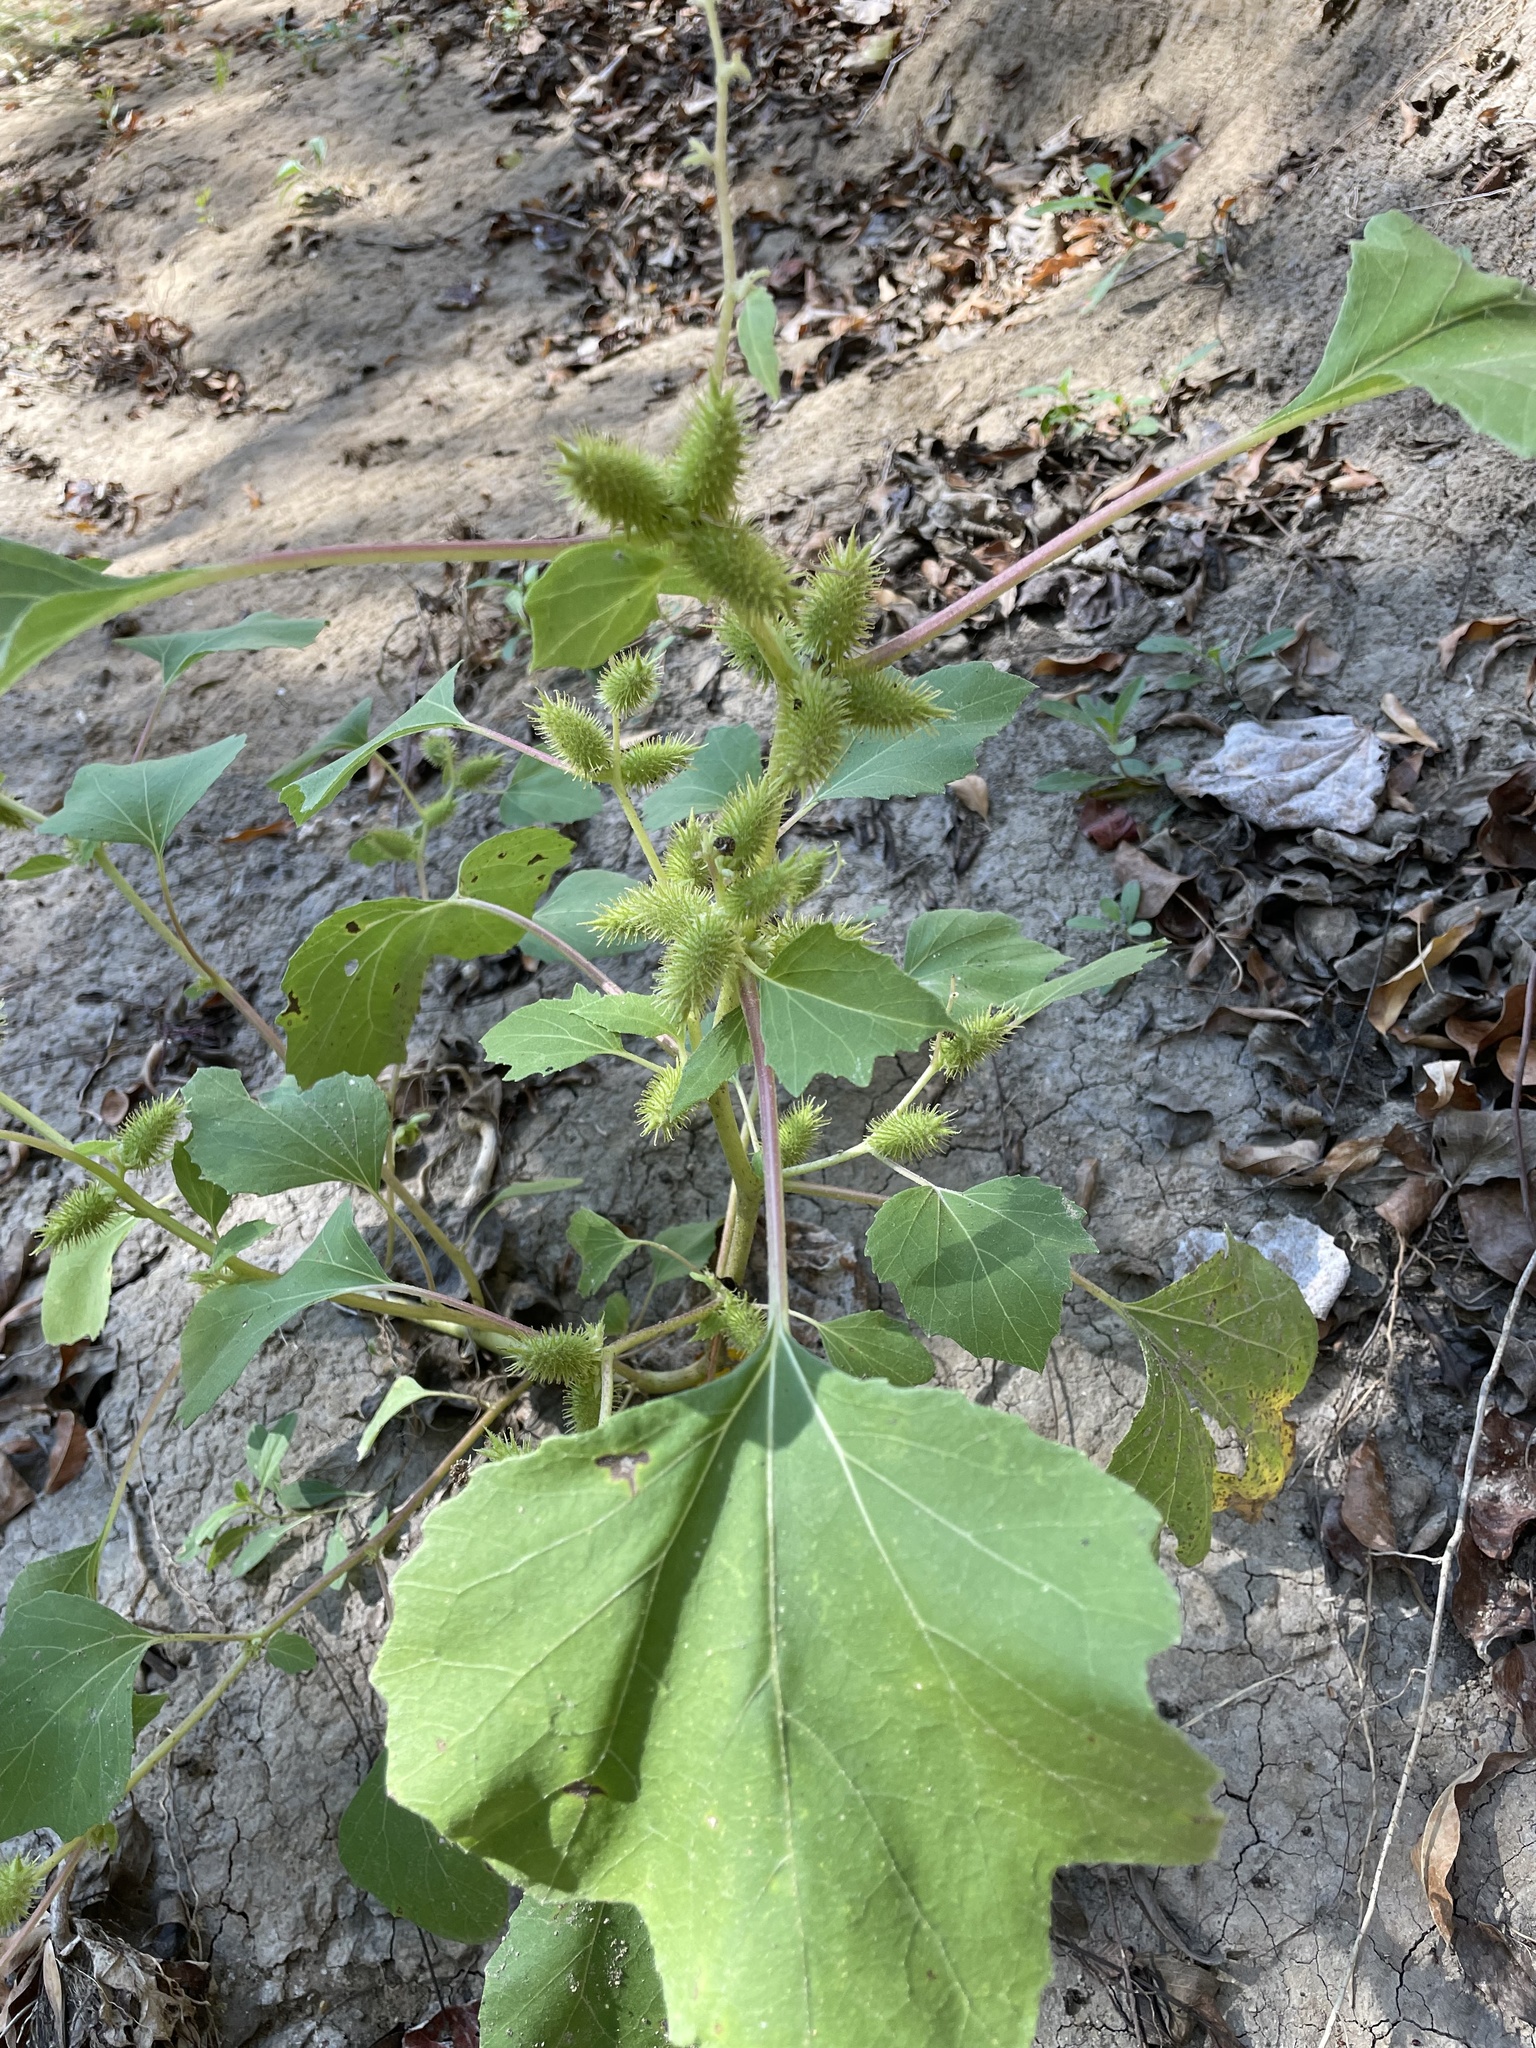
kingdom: Plantae
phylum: Tracheophyta
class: Magnoliopsida
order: Asterales
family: Asteraceae
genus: Xanthium
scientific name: Xanthium strumarium
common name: Rough cocklebur
